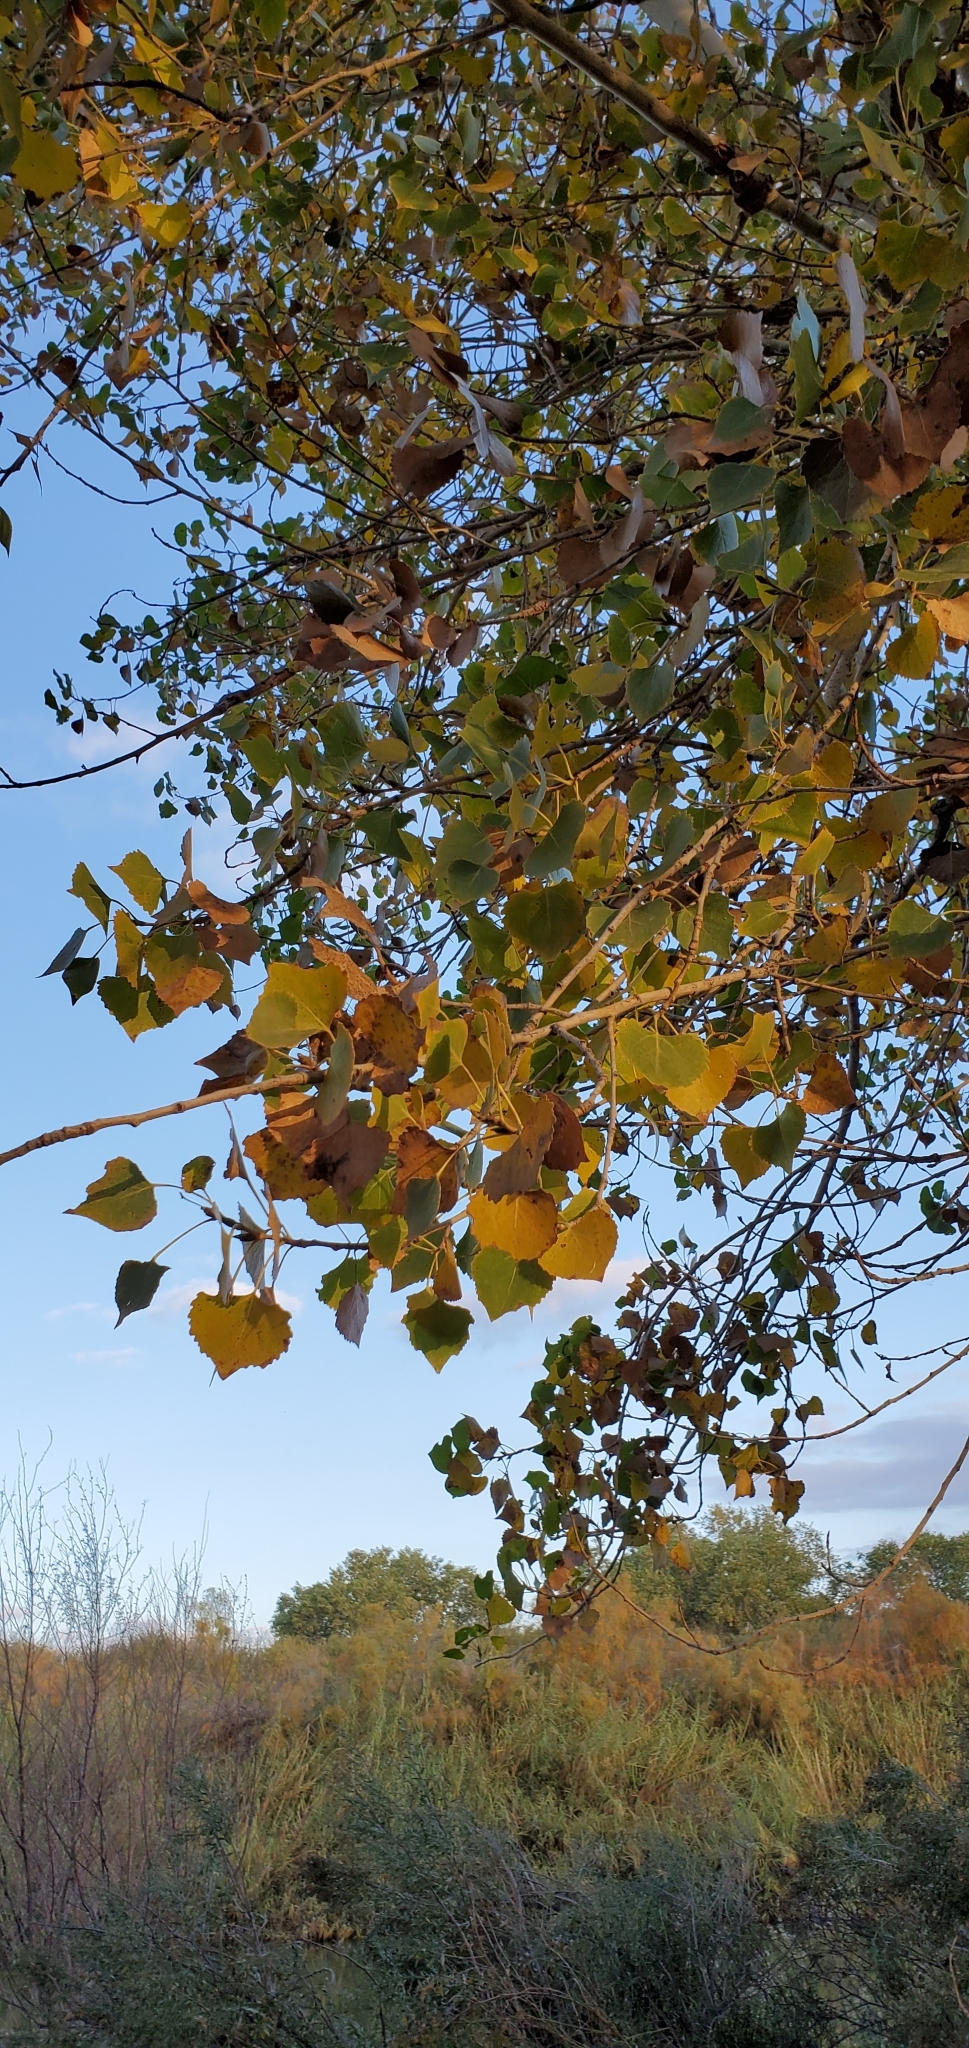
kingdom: Plantae
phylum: Tracheophyta
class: Magnoliopsida
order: Malpighiales
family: Salicaceae
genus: Populus
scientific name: Populus fremontii
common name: Fremont's cottonwood
